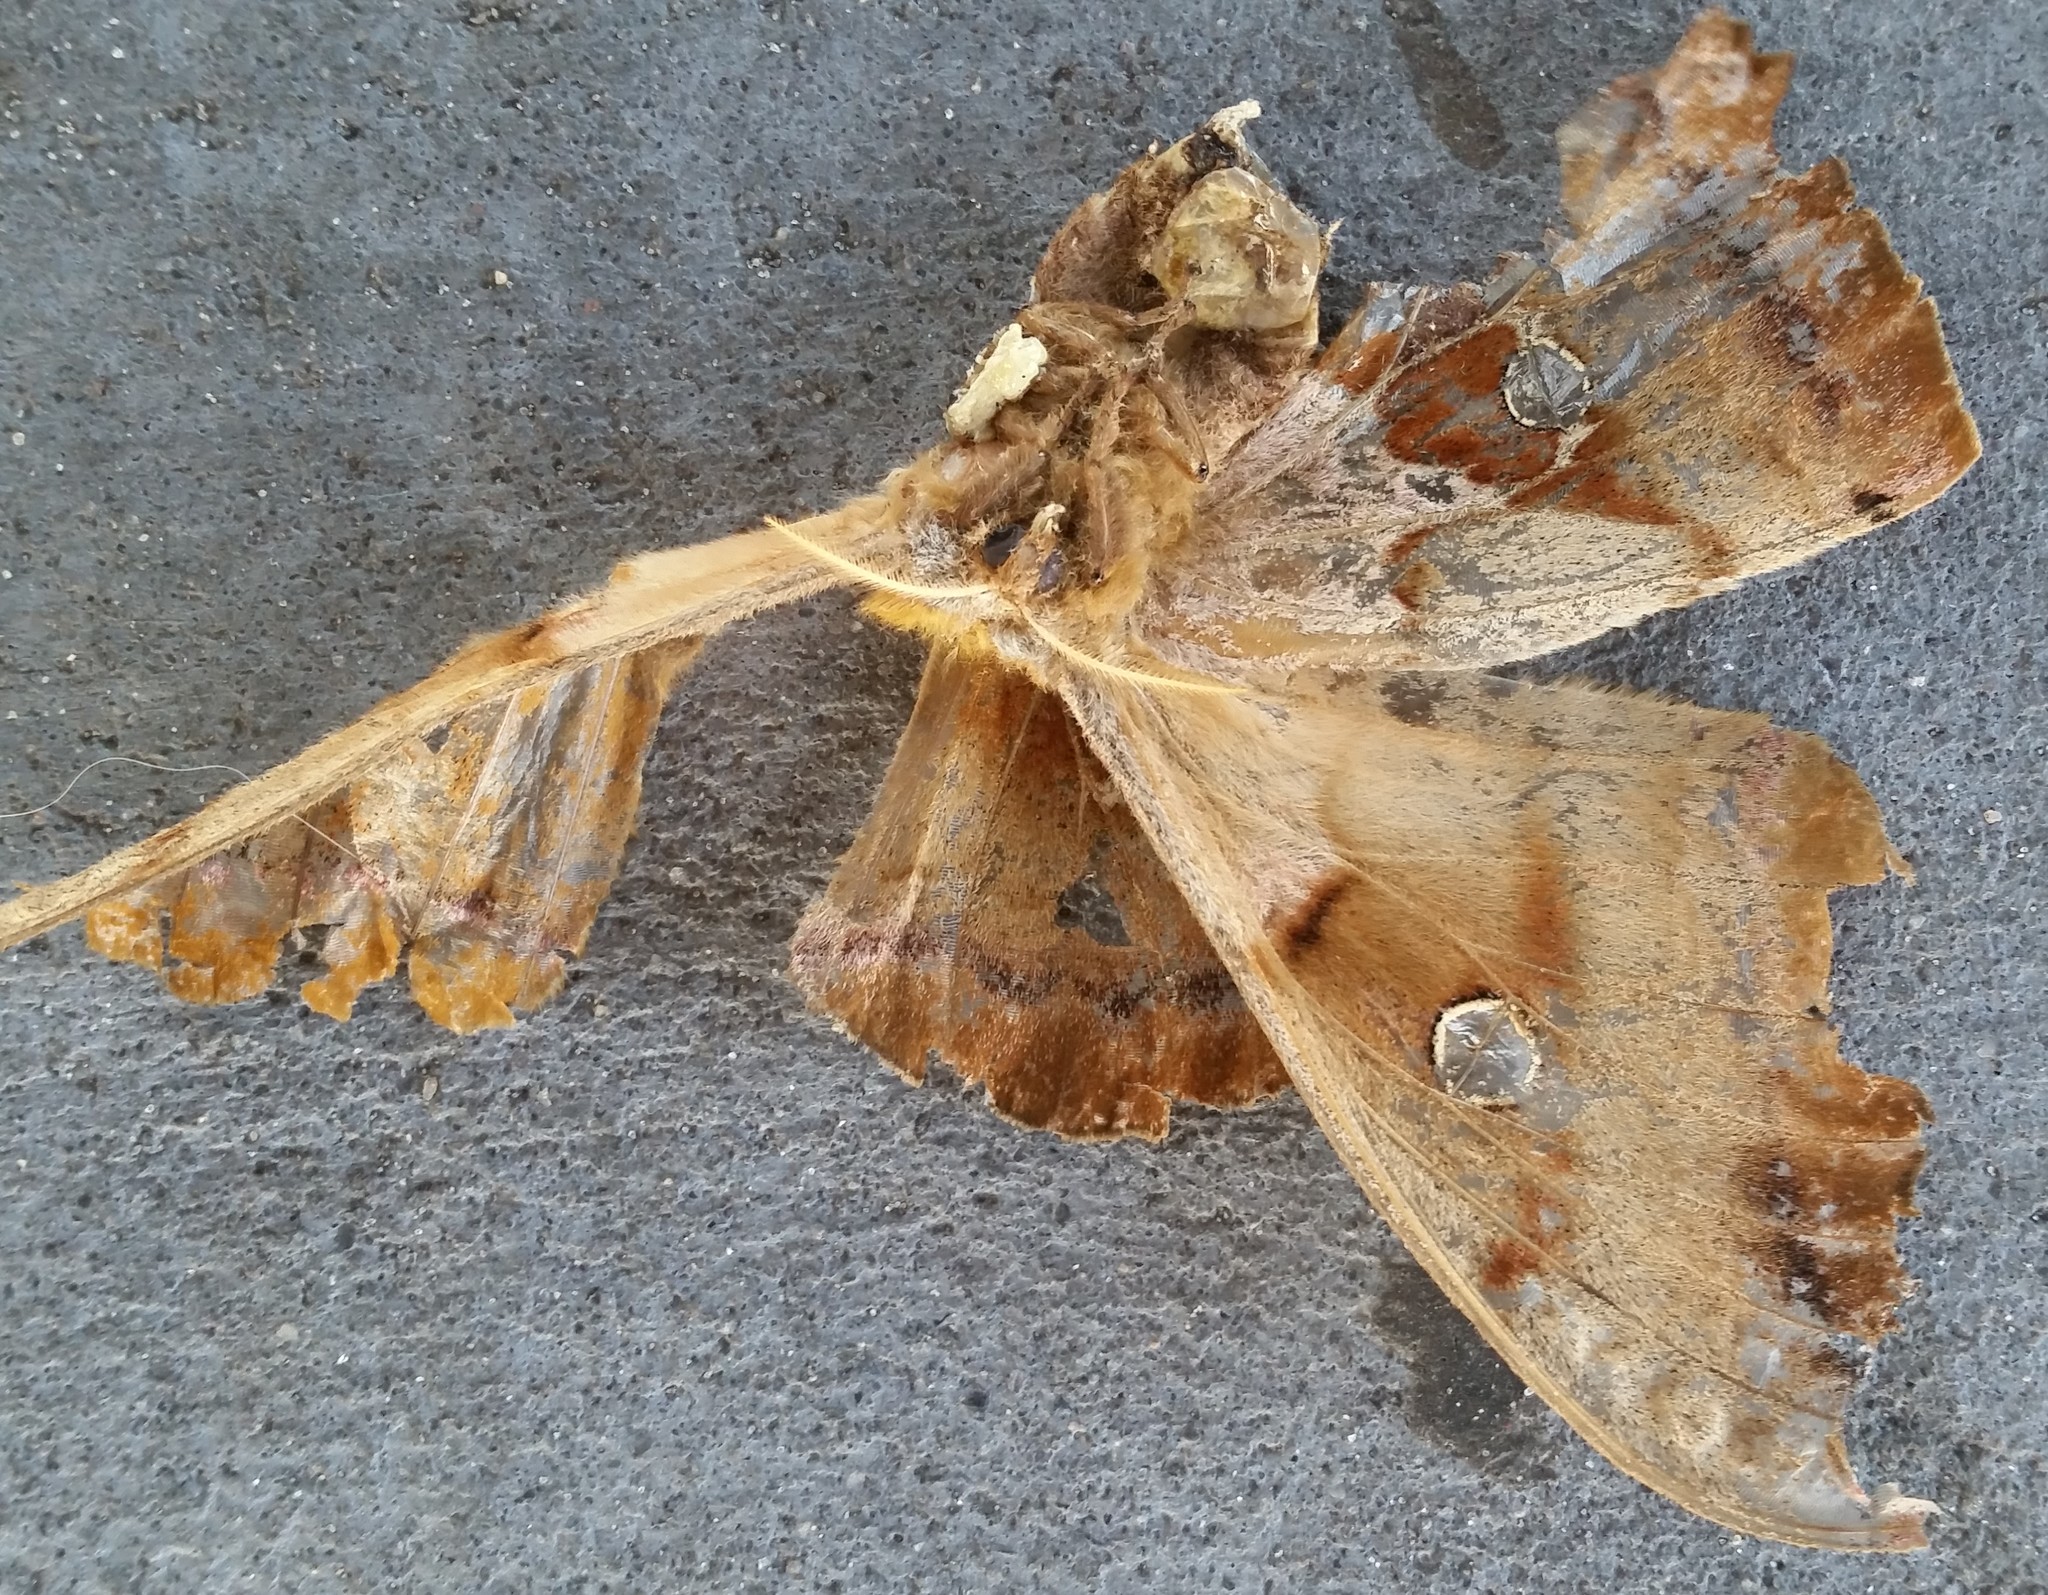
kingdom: Animalia
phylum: Arthropoda
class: Insecta
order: Lepidoptera
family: Saturniidae
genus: Antheraea
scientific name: Antheraea polyphemus
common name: Polyphemus moth
